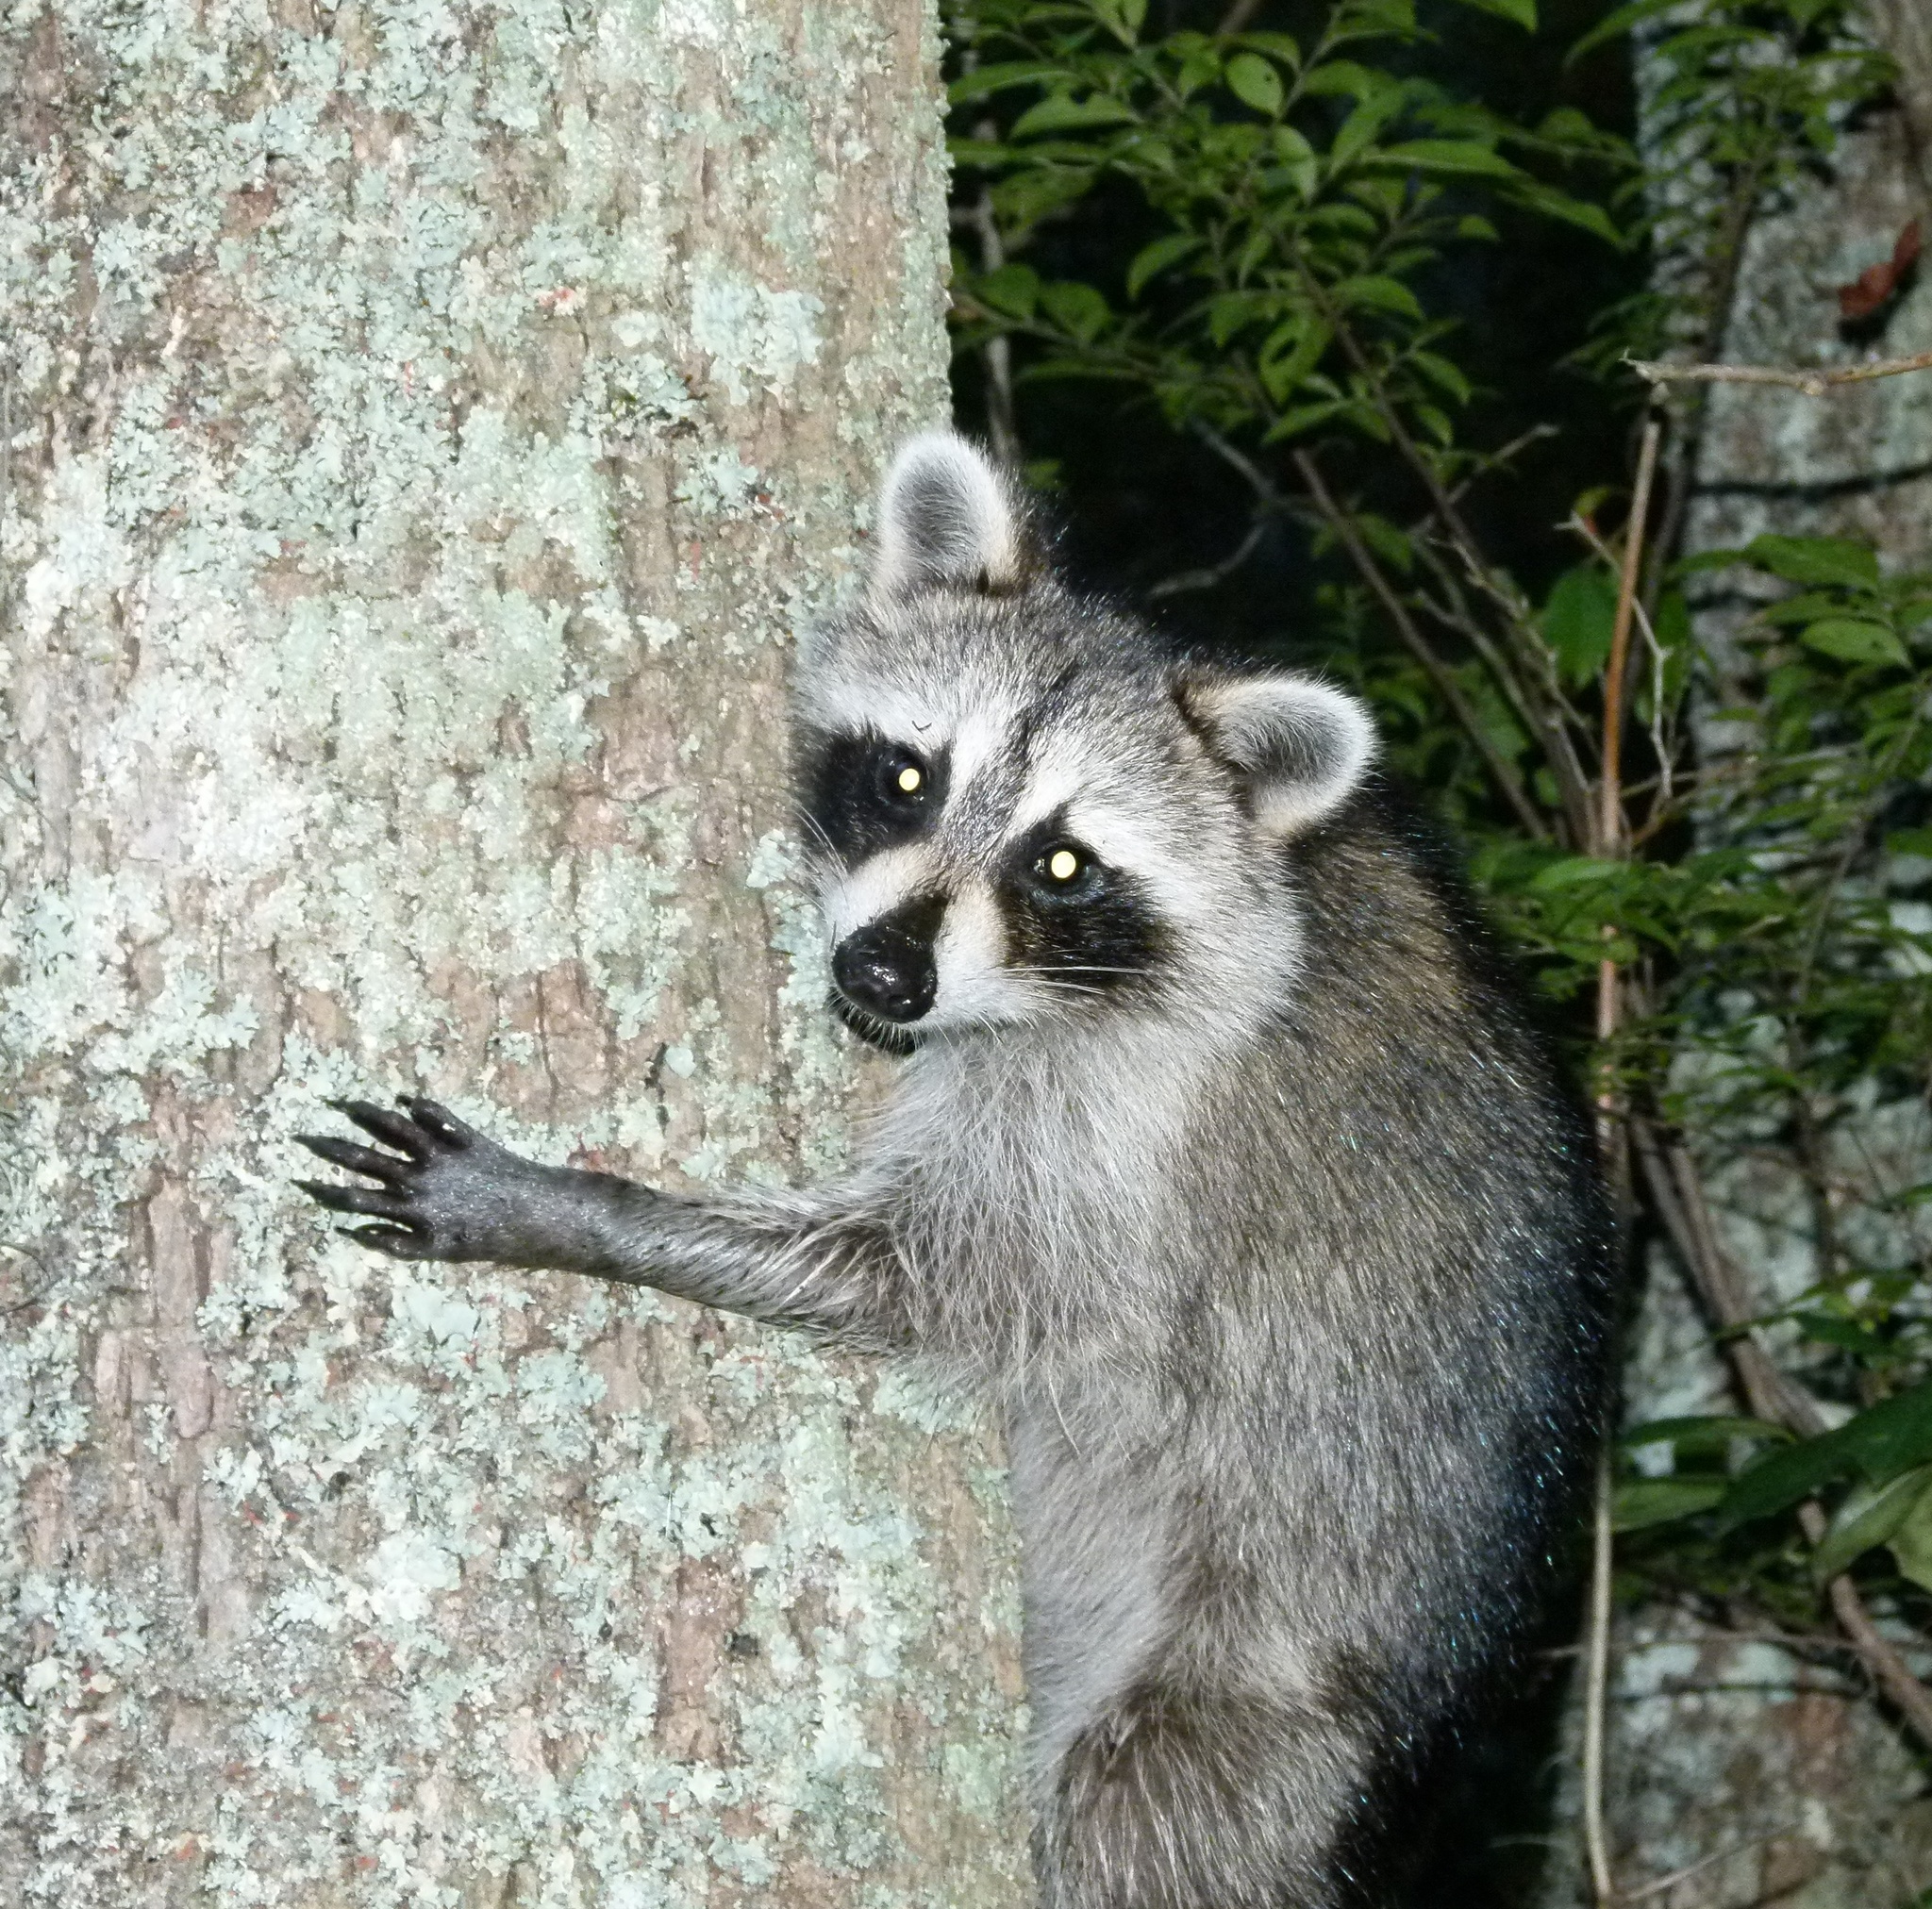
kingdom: Animalia
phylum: Chordata
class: Mammalia
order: Carnivora
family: Procyonidae
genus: Procyon
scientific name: Procyon lotor
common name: Raccoon
